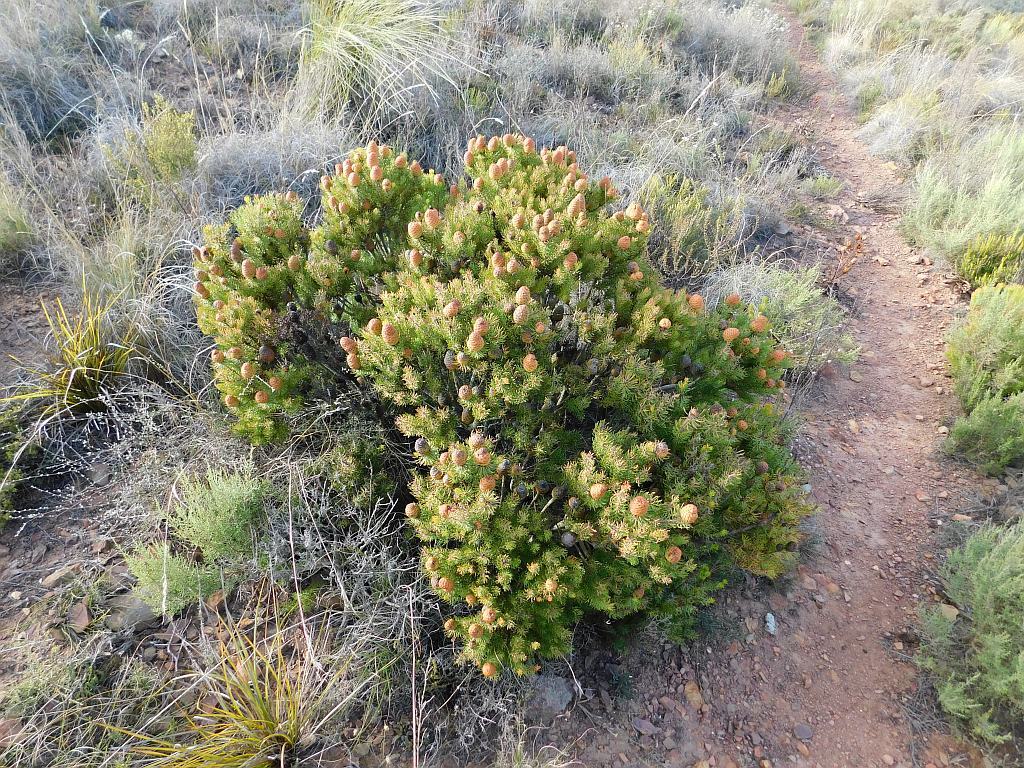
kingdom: Plantae
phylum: Tracheophyta
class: Magnoliopsida
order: Proteales
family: Proteaceae
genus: Leucadendron
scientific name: Leucadendron teretifolium
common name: Needle-leaf conebush
